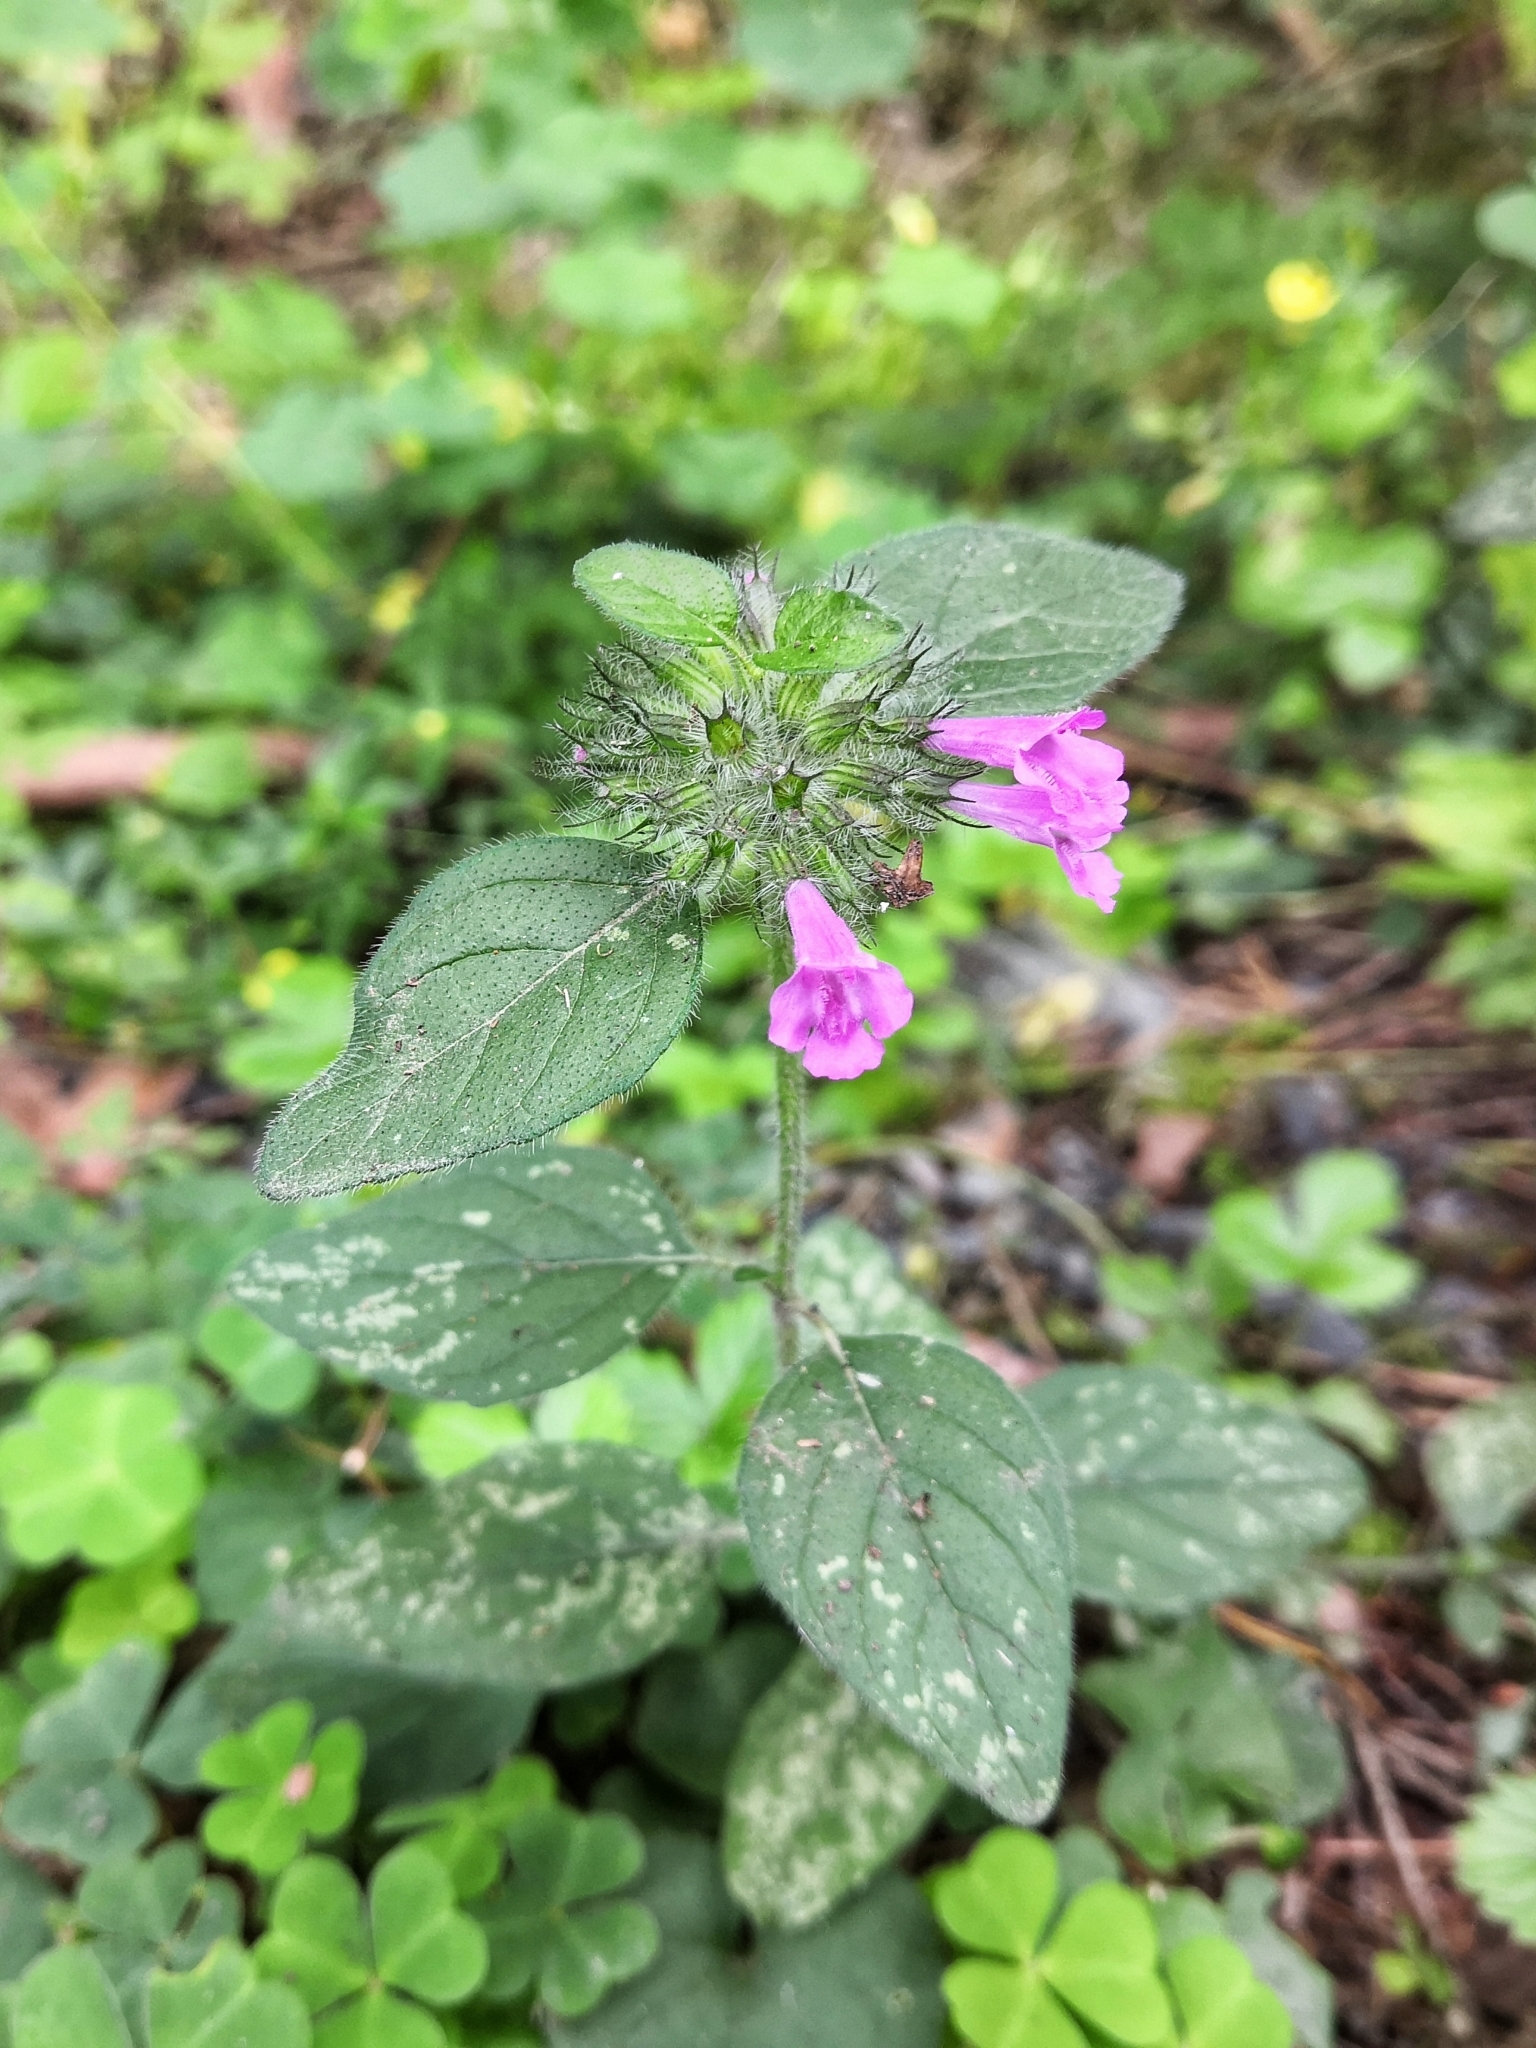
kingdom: Plantae
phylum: Tracheophyta
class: Magnoliopsida
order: Lamiales
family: Lamiaceae
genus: Clinopodium
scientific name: Clinopodium vulgare
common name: Wild basil
